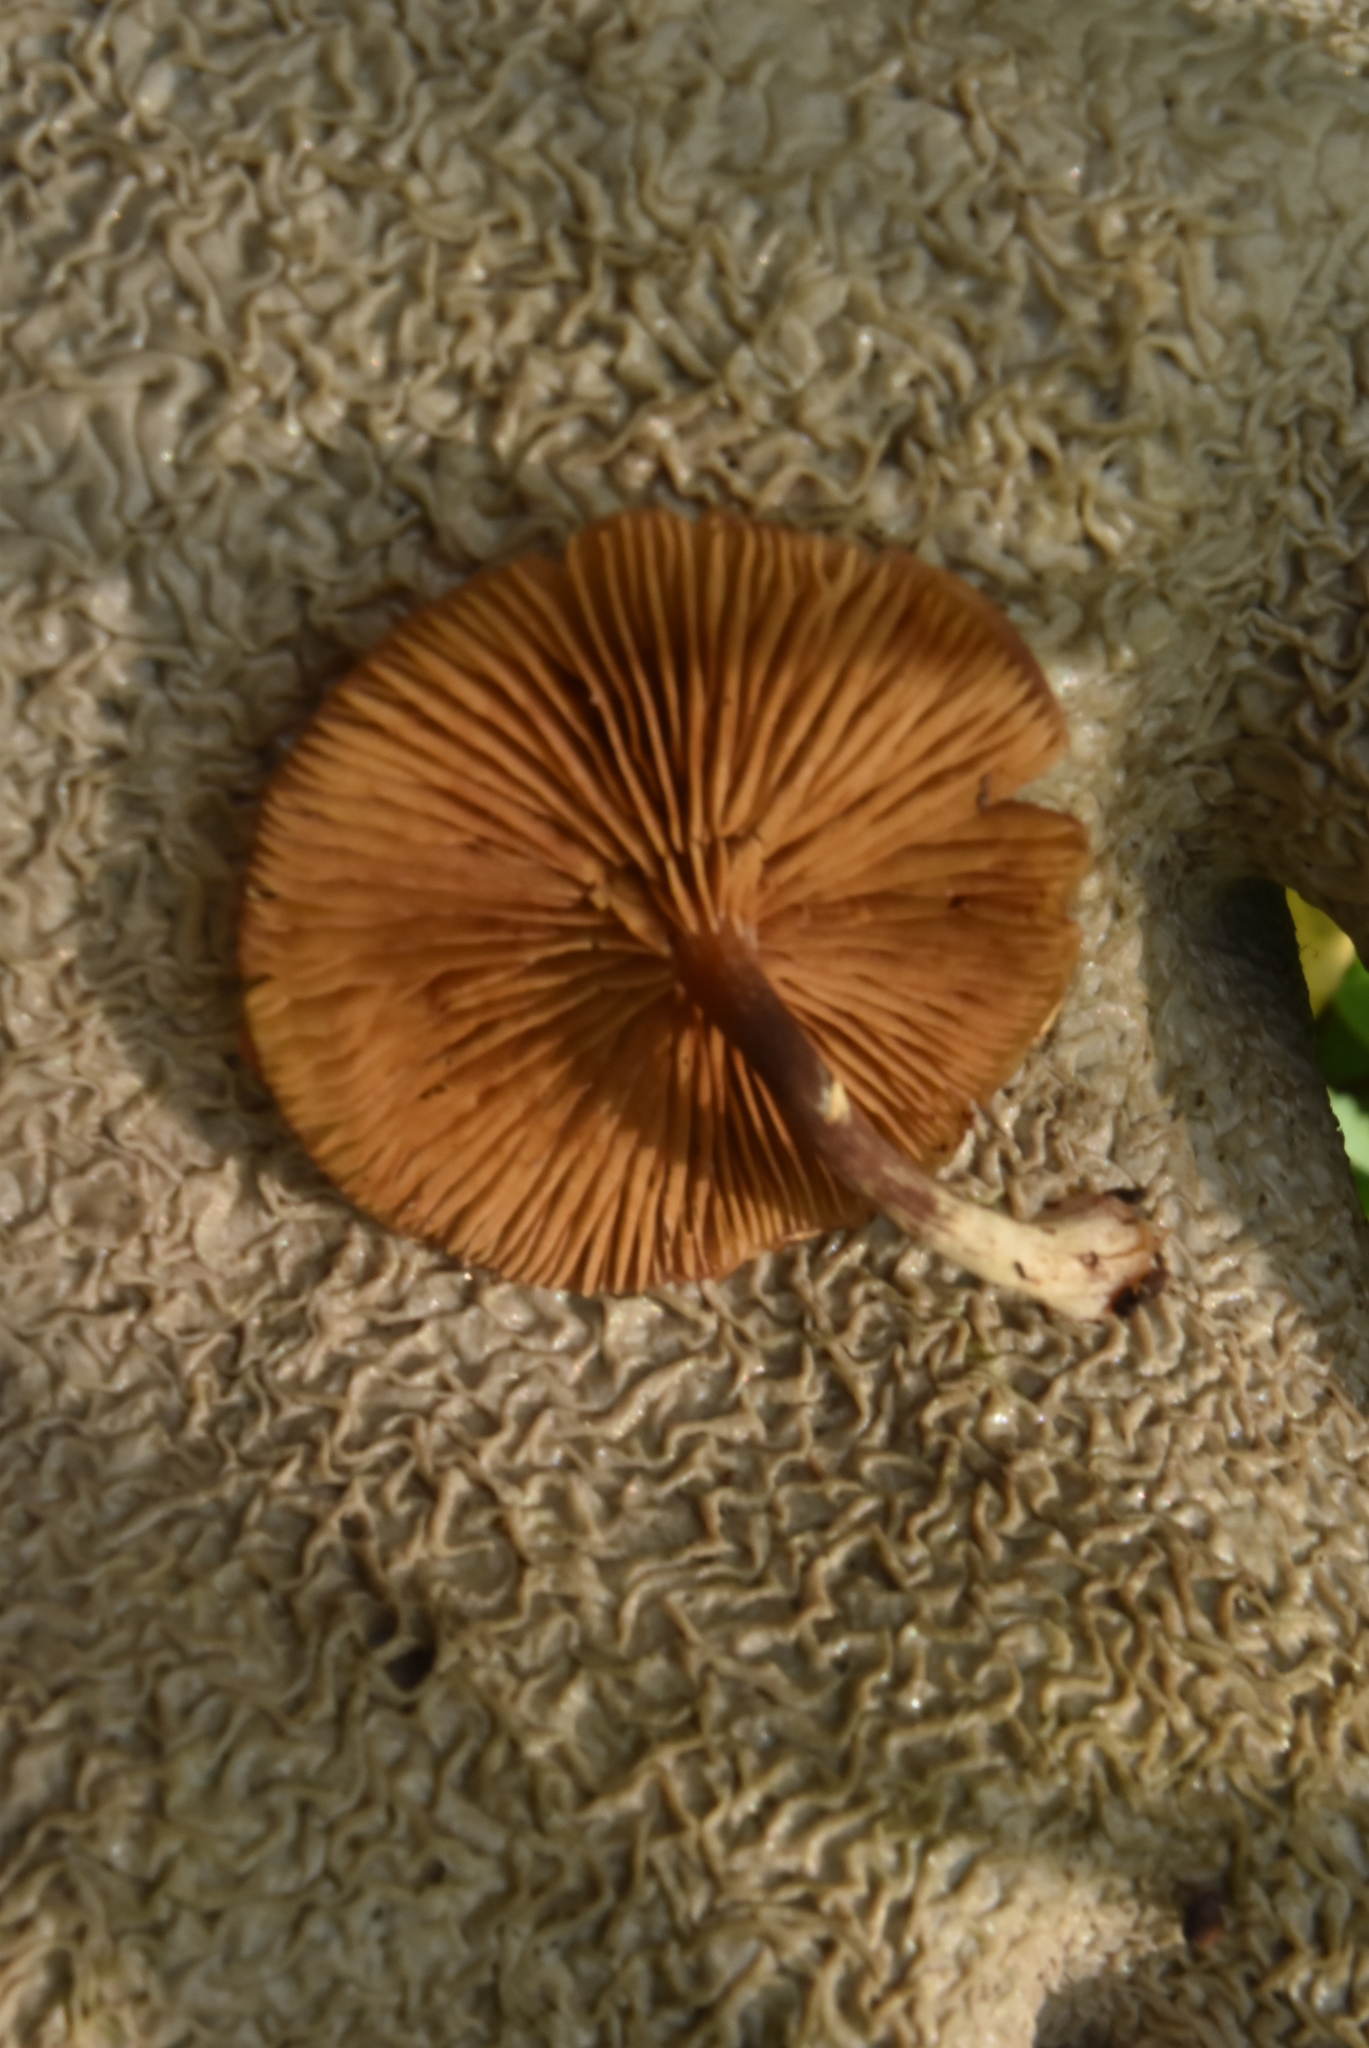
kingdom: Fungi
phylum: Basidiomycota
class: Agaricomycetes
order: Agaricales
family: Hymenogastraceae
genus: Galerina
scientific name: Galerina marginata
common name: Funeral bell
